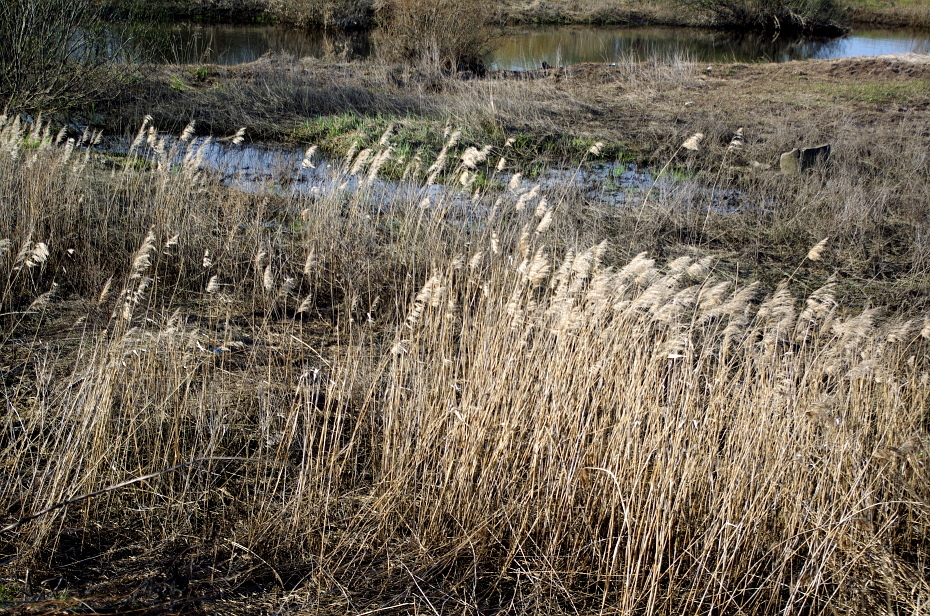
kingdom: Plantae
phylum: Tracheophyta
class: Liliopsida
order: Poales
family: Poaceae
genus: Phragmites
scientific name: Phragmites australis
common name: Common reed
